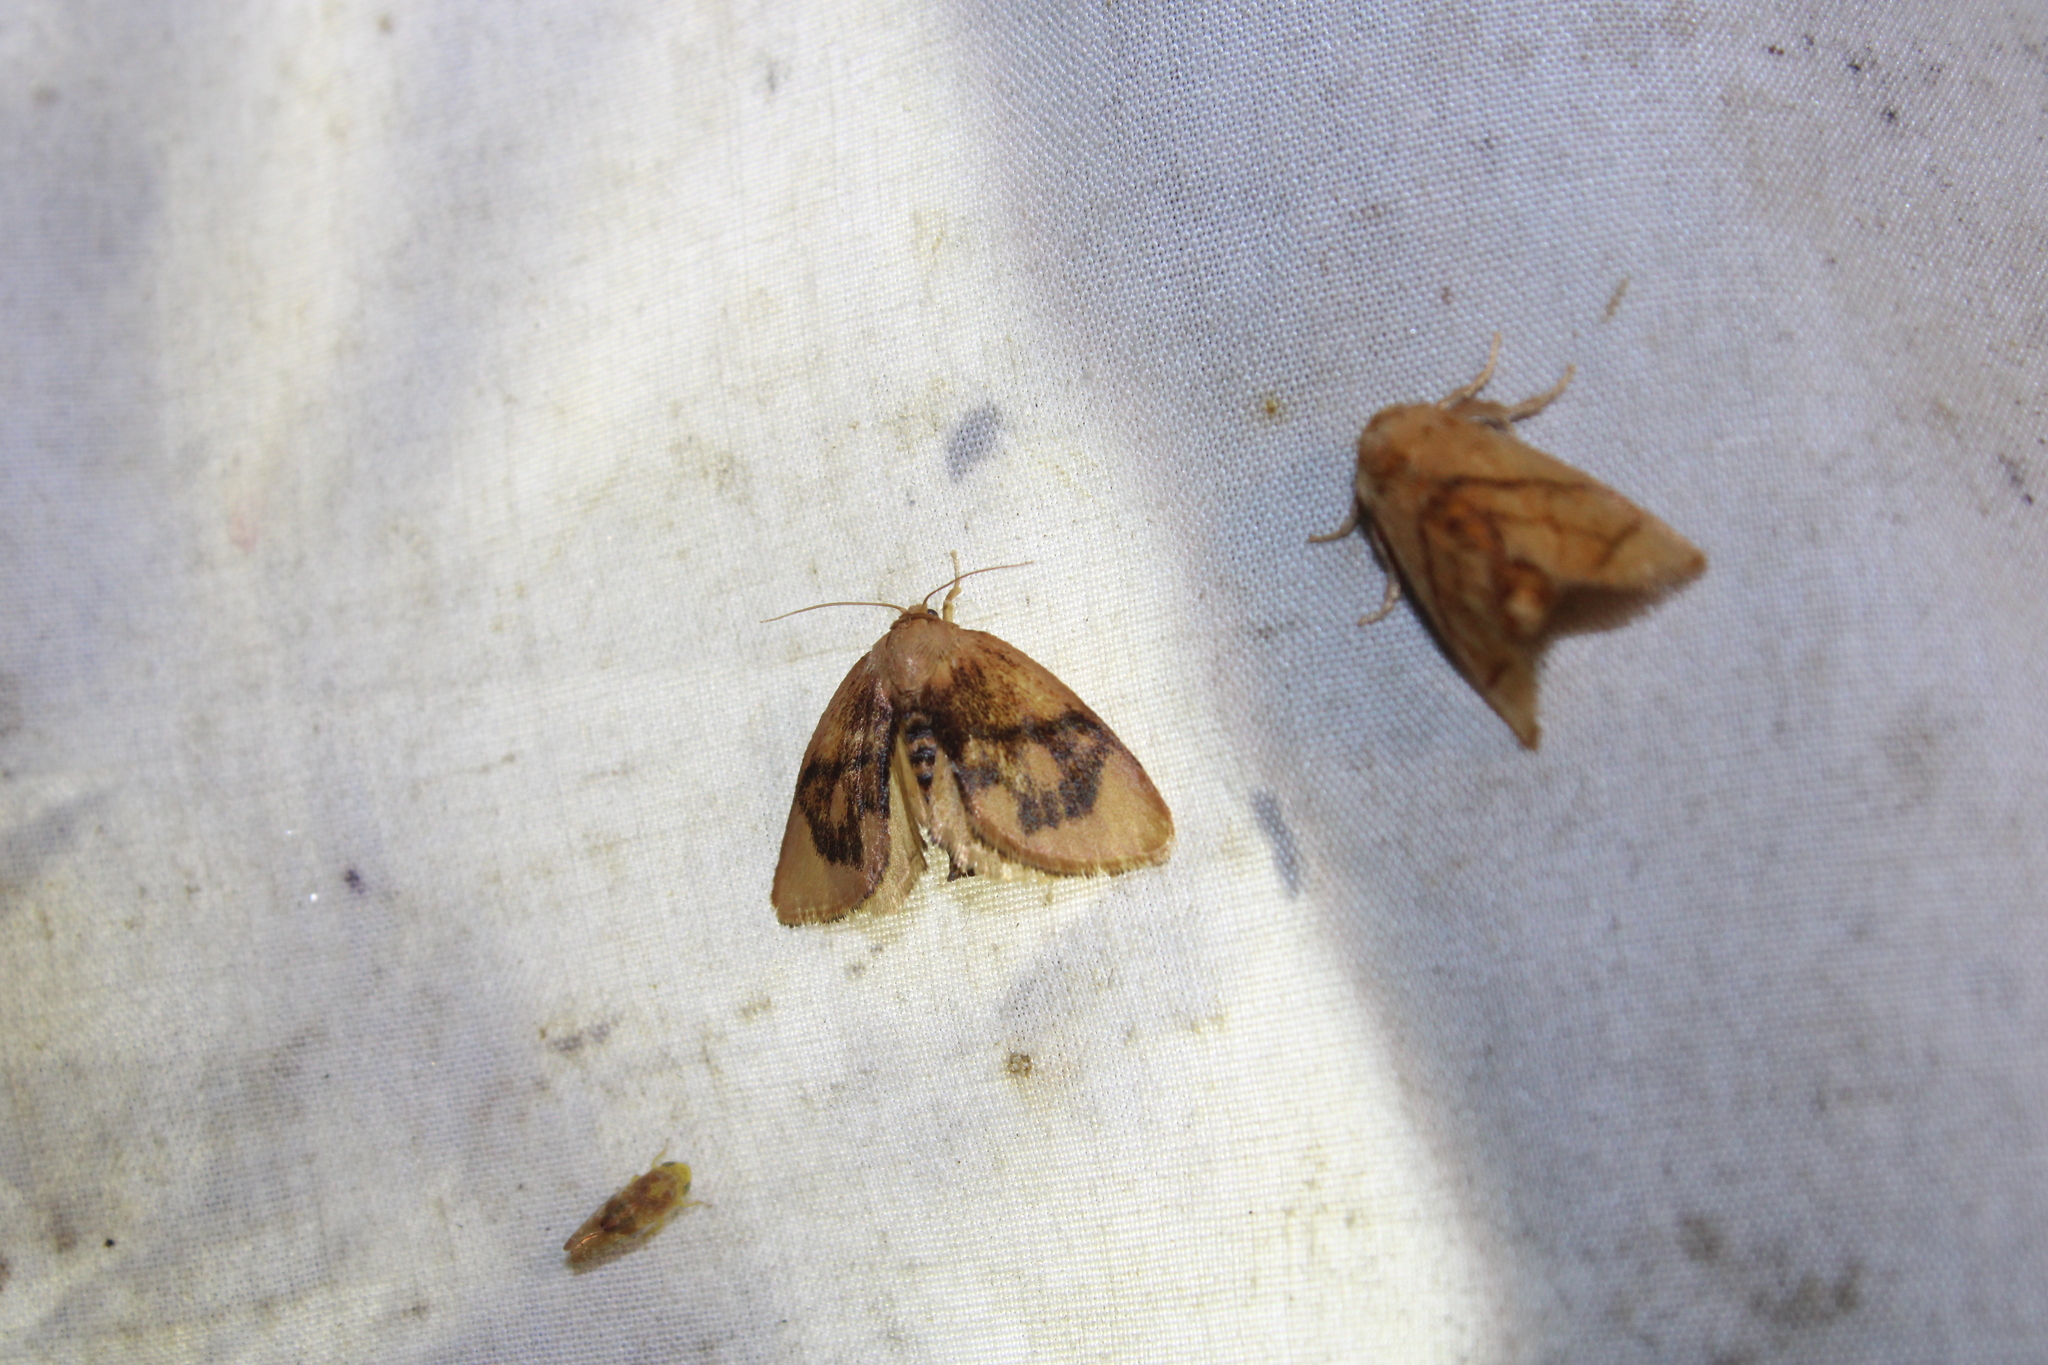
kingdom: Animalia
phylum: Arthropoda
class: Insecta
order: Lepidoptera
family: Limacodidae
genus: Tortricidia
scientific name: Tortricidia flexuosa
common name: Abbreviated button slug moth
